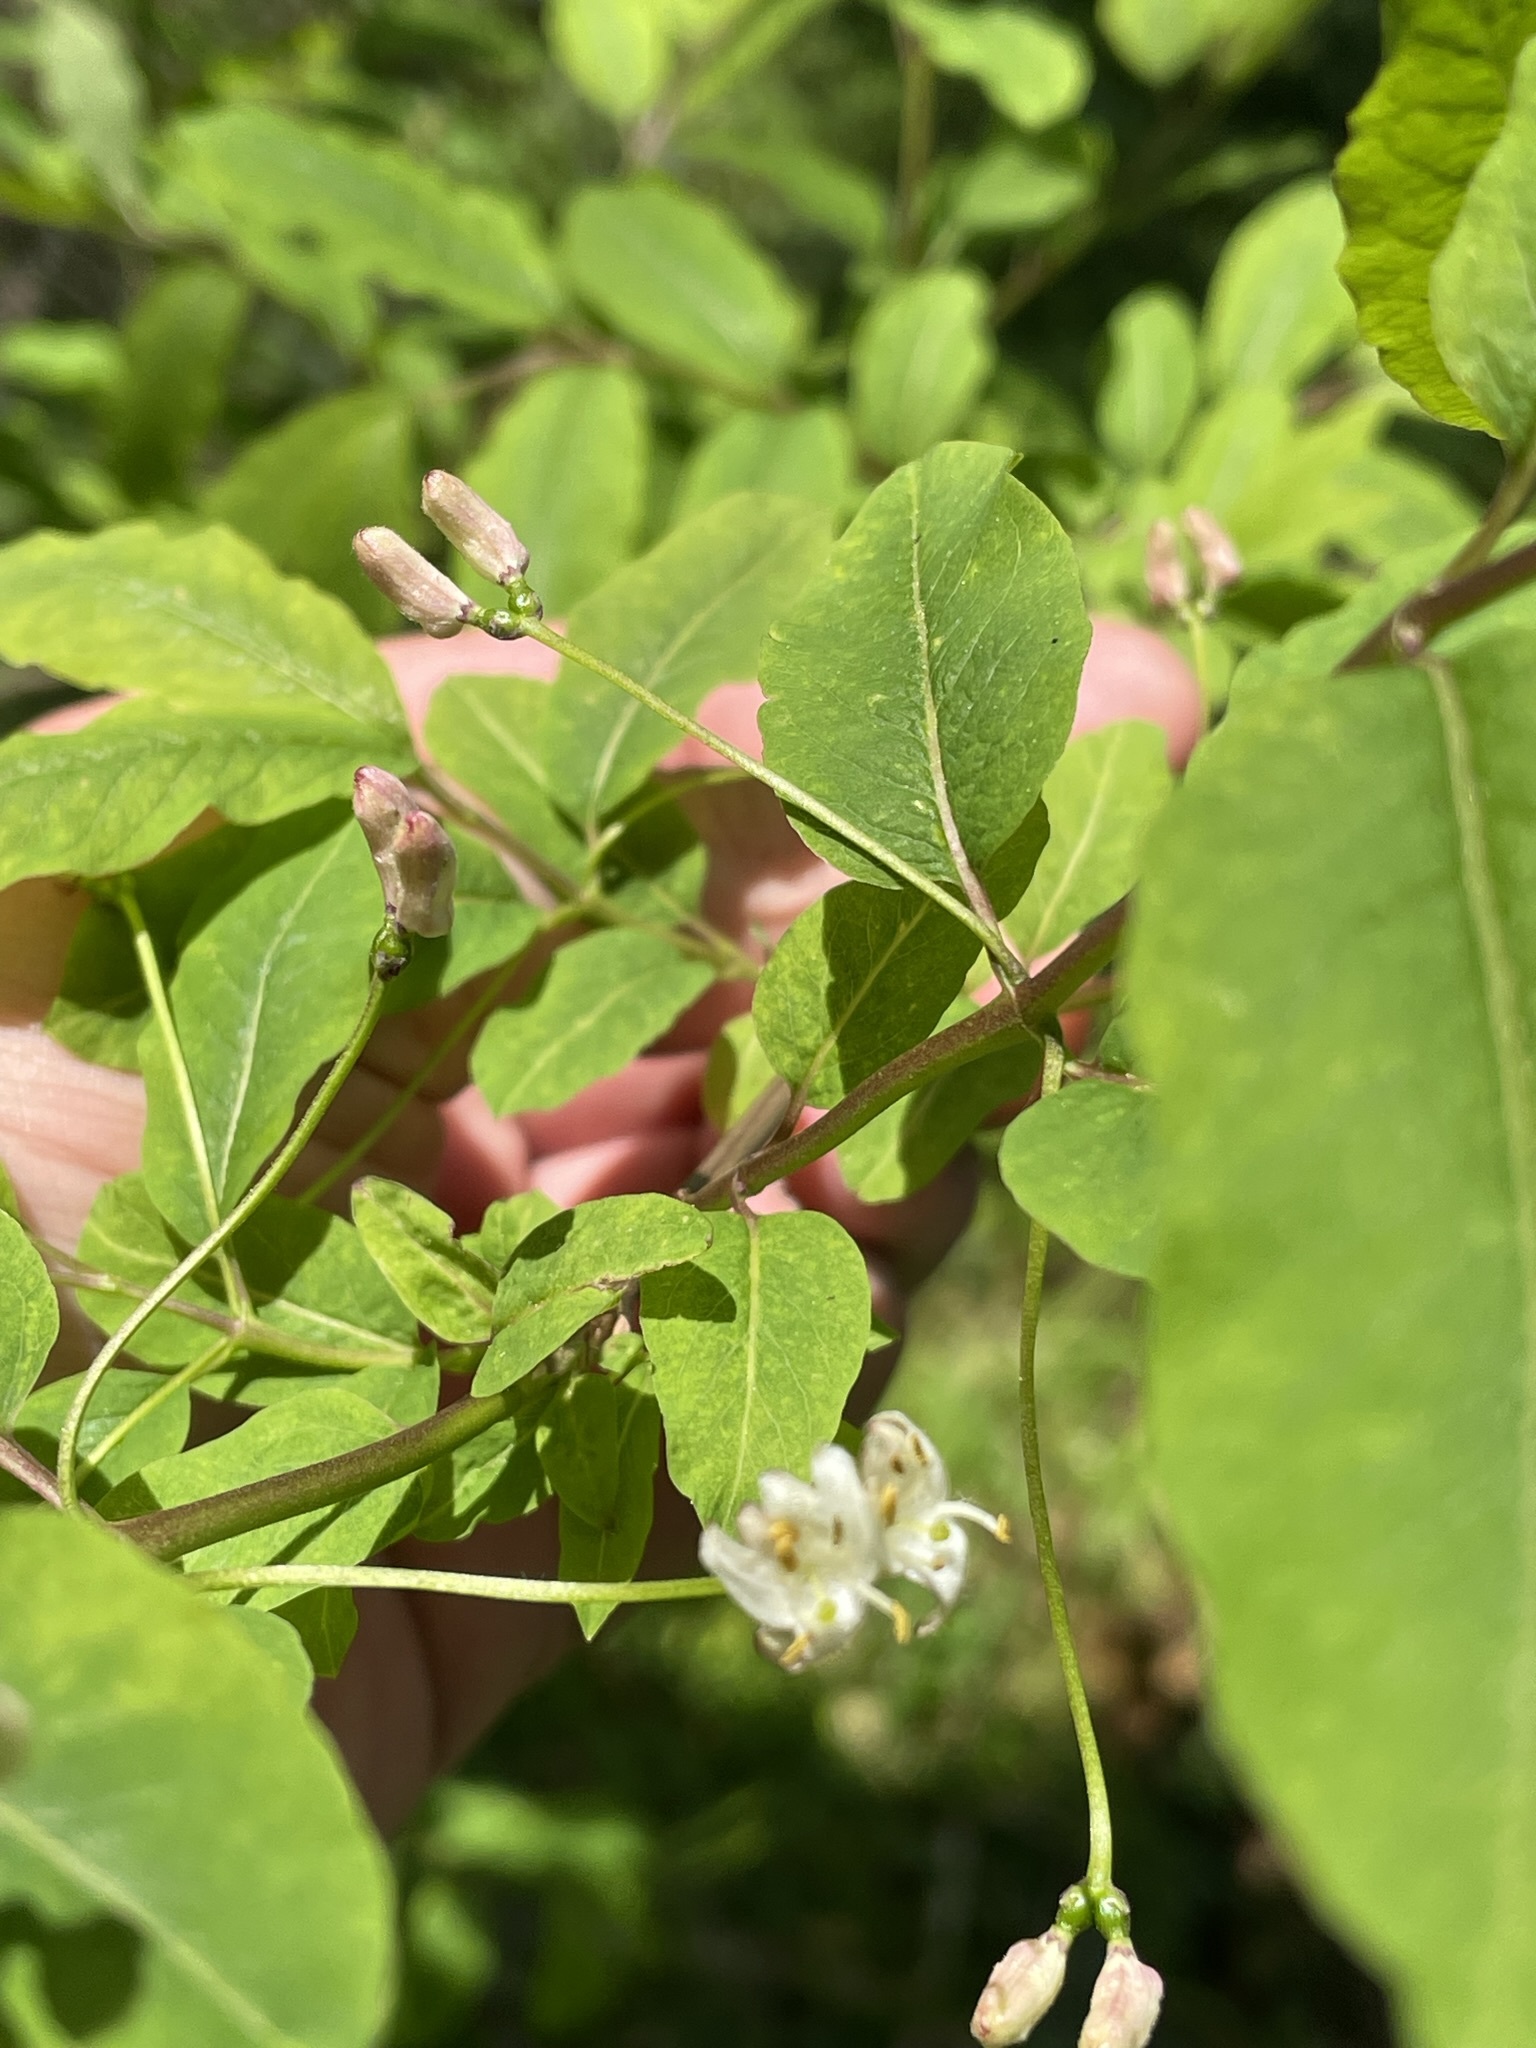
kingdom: Plantae
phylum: Tracheophyta
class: Magnoliopsida
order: Dipsacales
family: Caprifoliaceae
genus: Lonicera
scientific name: Lonicera nigra
